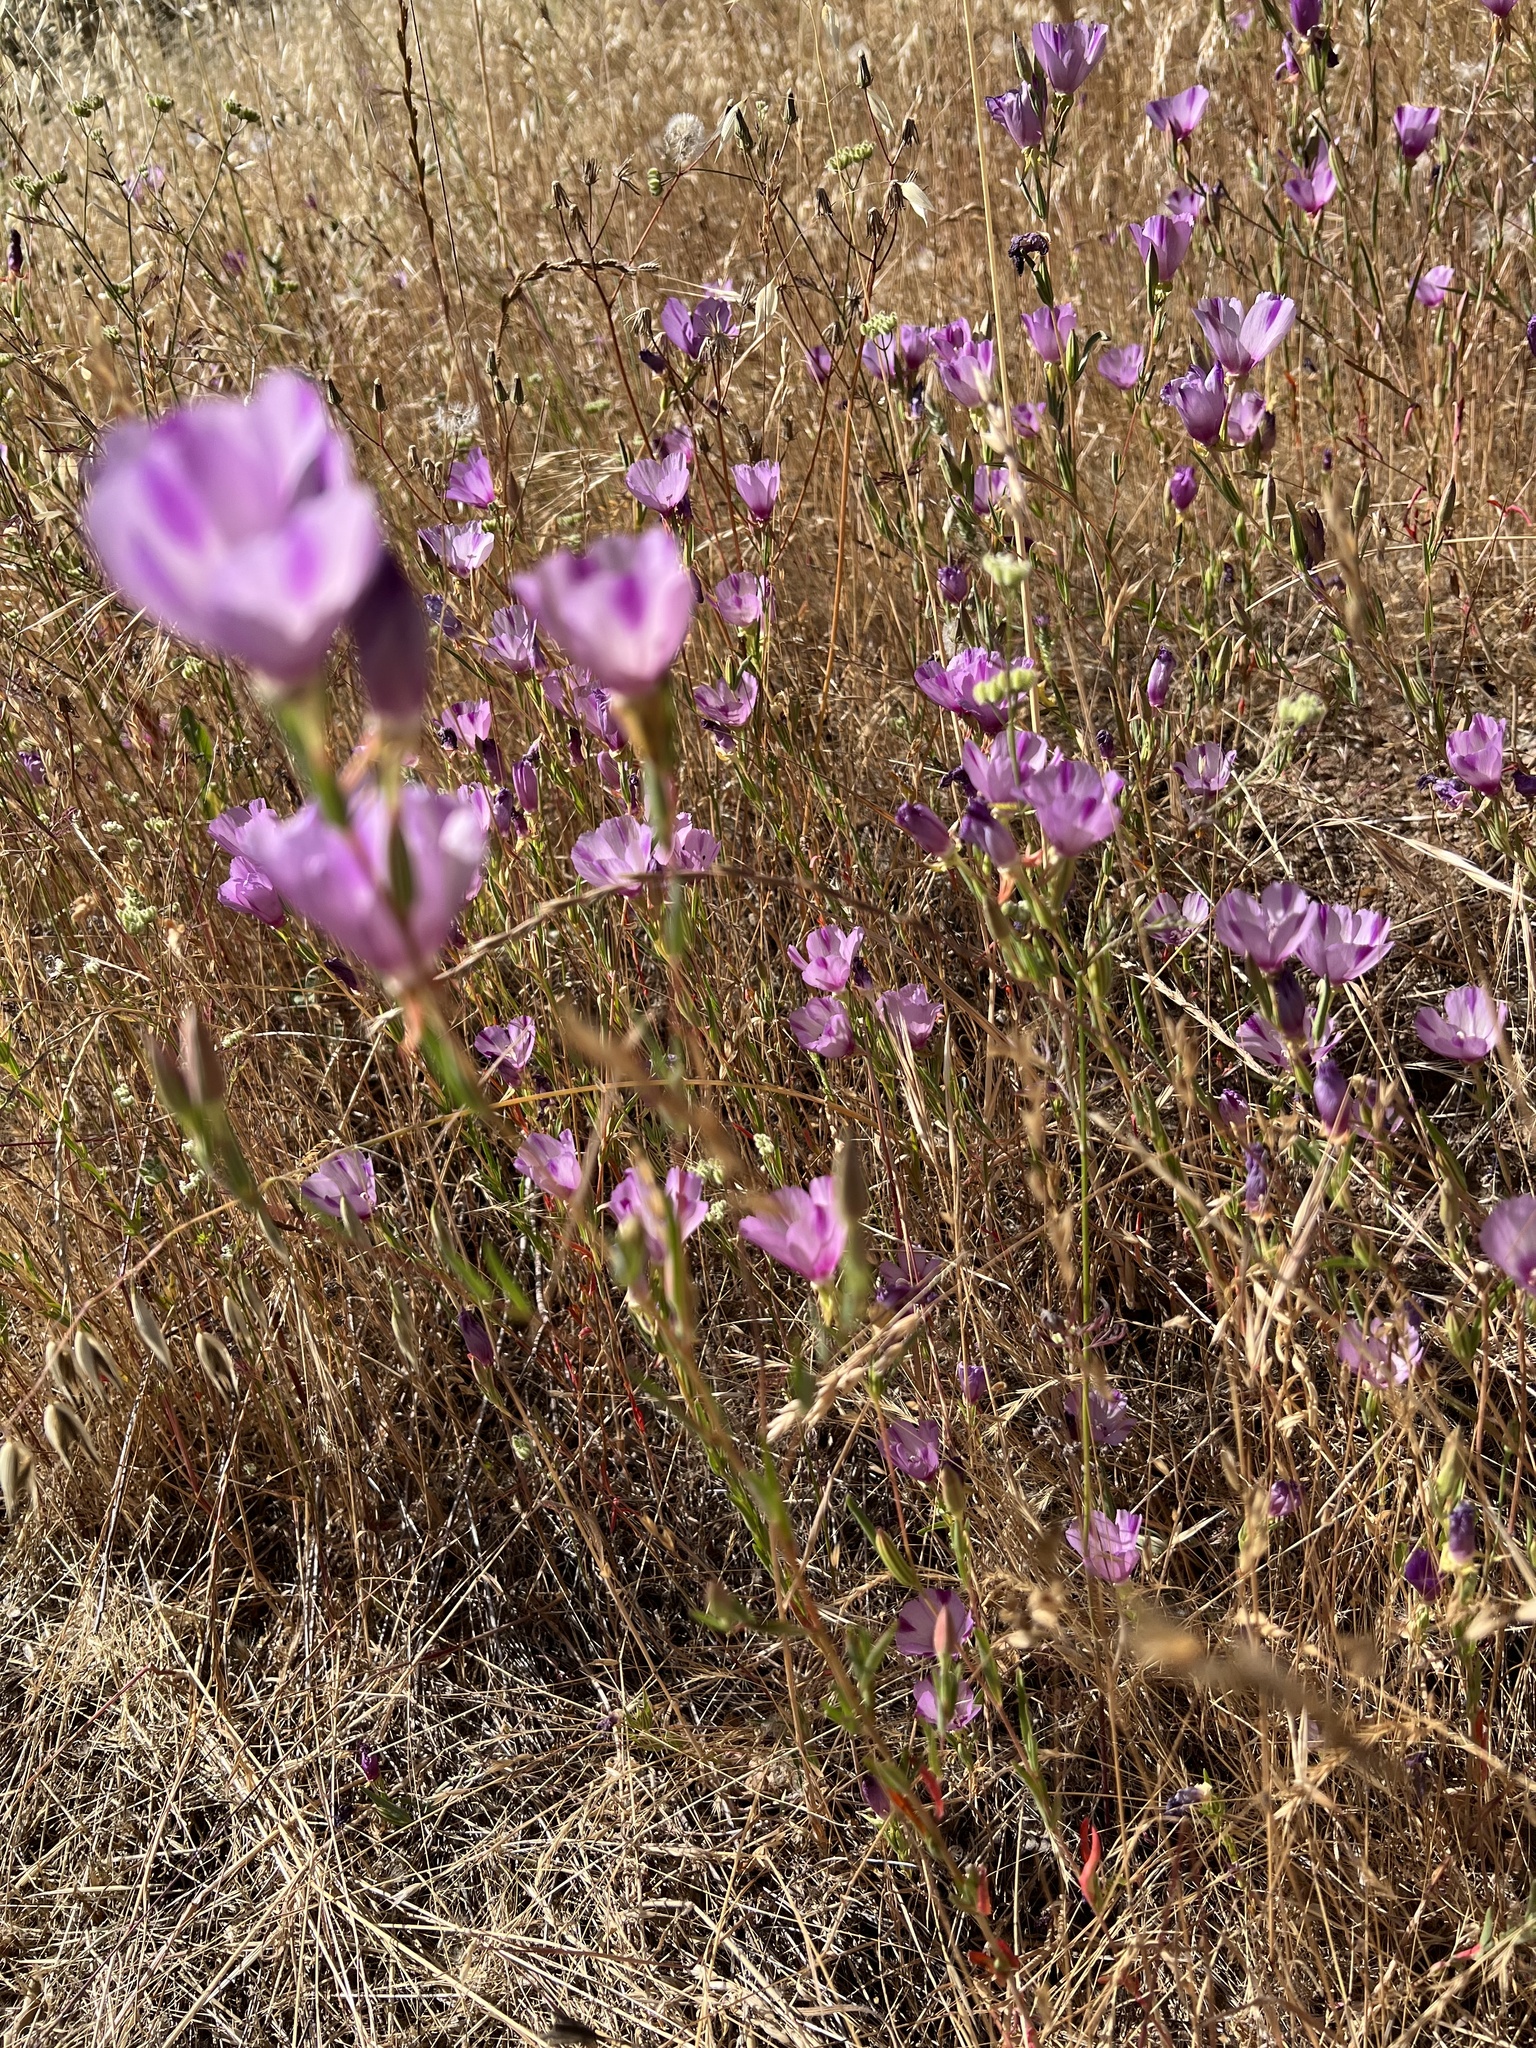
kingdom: Plantae
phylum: Tracheophyta
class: Magnoliopsida
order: Myrtales
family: Onagraceae
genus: Clarkia
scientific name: Clarkia purpurea
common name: Purple clarkia
